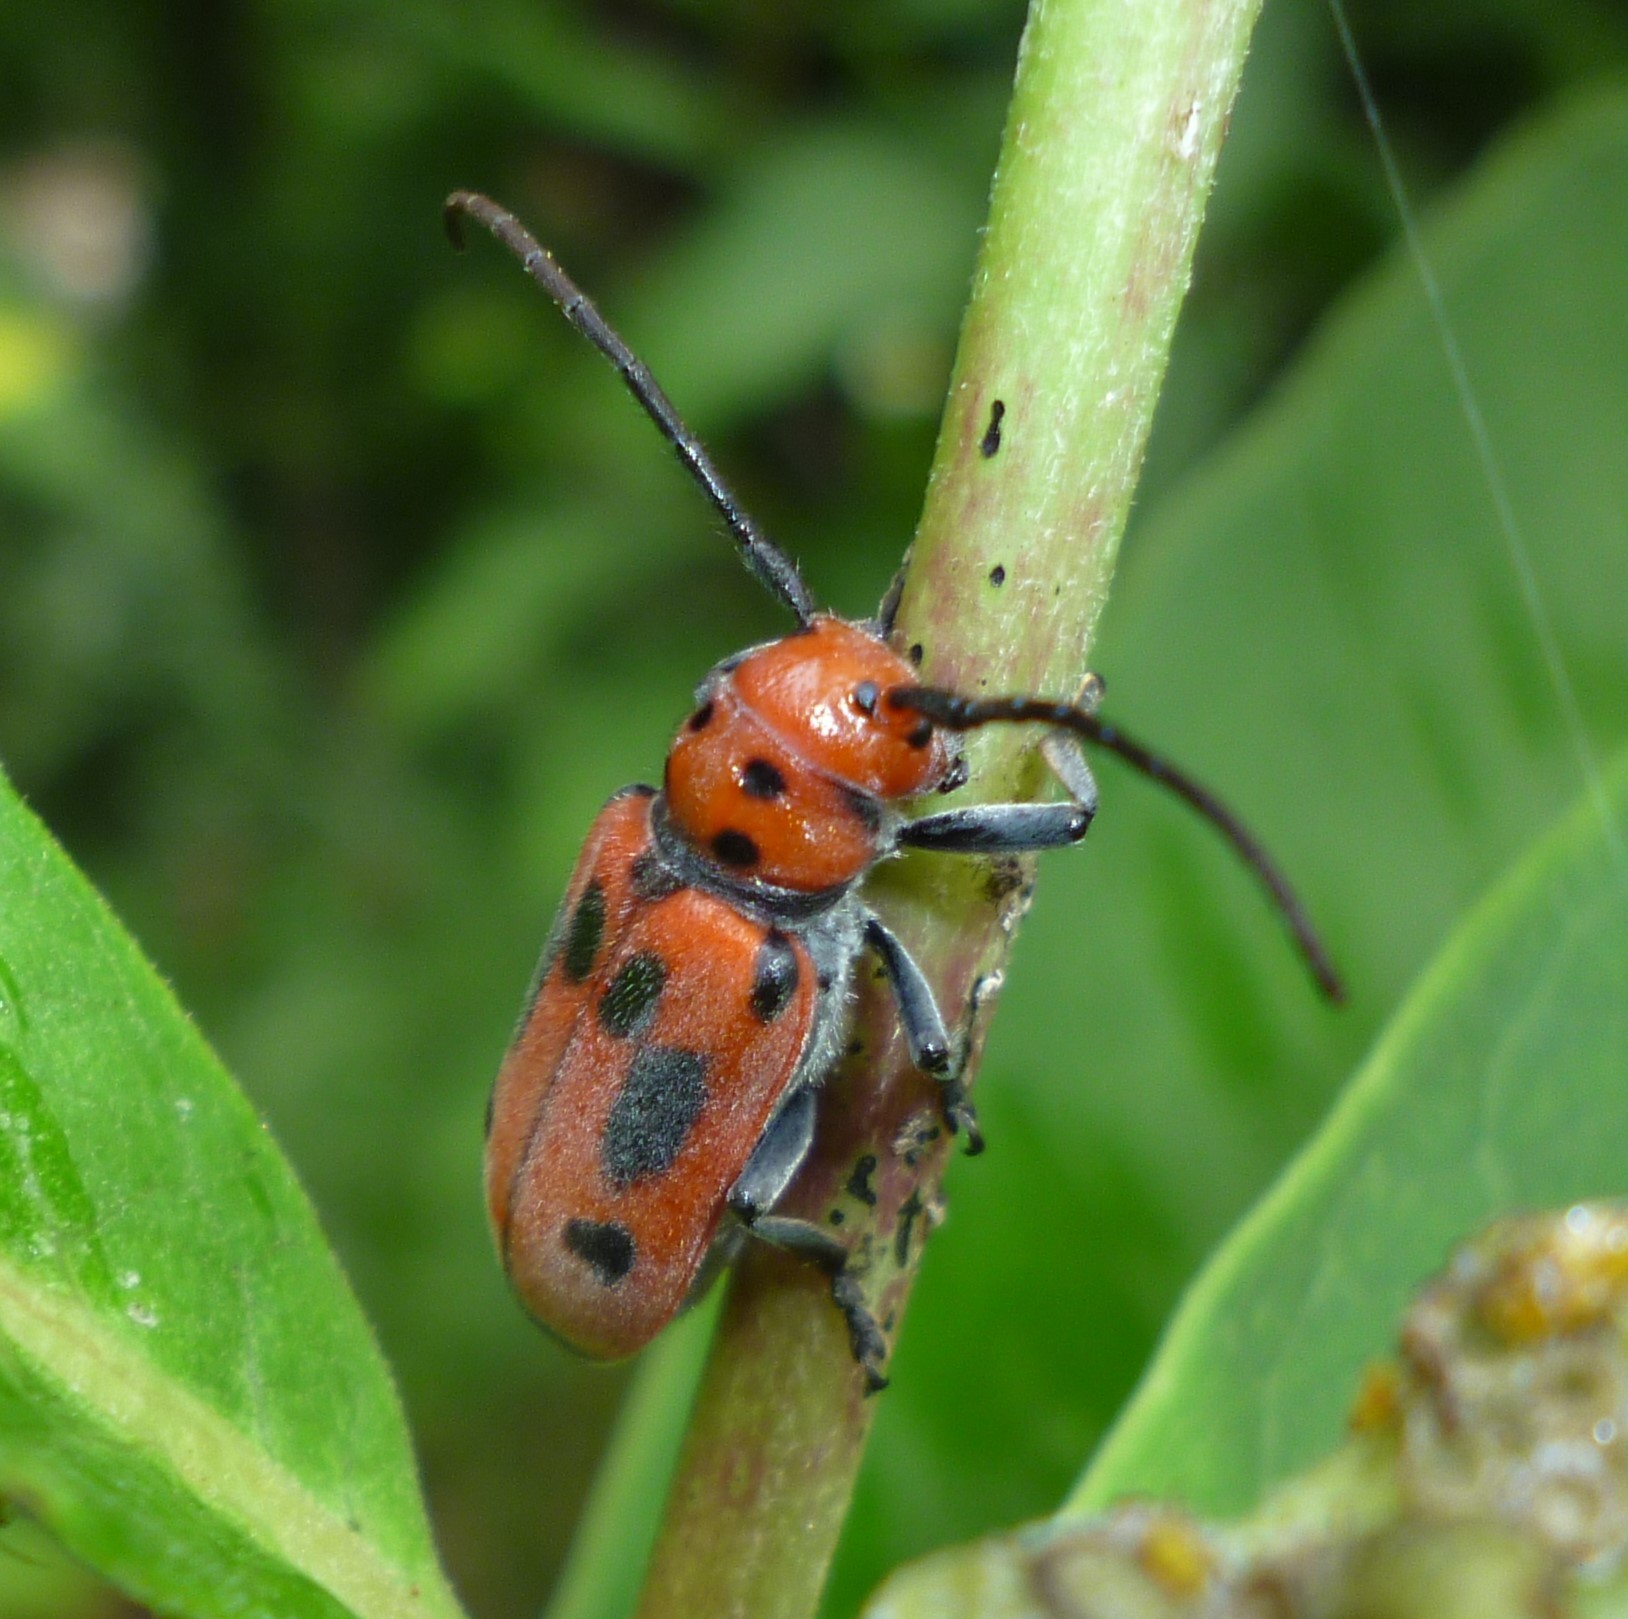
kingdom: Animalia
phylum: Arthropoda
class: Insecta
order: Coleoptera
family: Cerambycidae
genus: Tetraopes
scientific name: Tetraopes tetrophthalmus
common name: Red milkweed beetle
